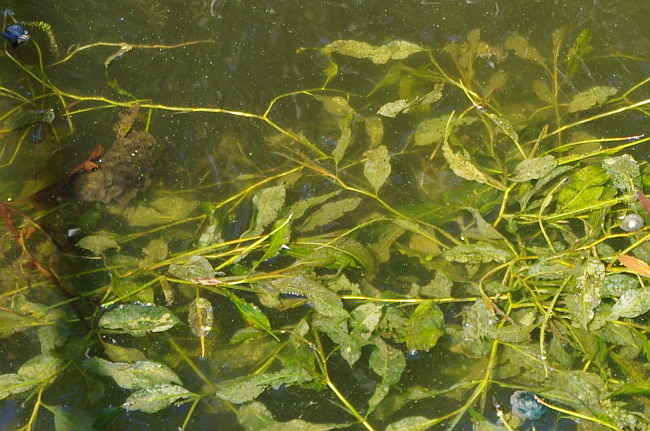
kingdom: Plantae
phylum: Tracheophyta
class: Liliopsida
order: Alismatales
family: Potamogetonaceae
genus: Potamogeton
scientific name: Potamogeton lucens
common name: Shining pondweed
